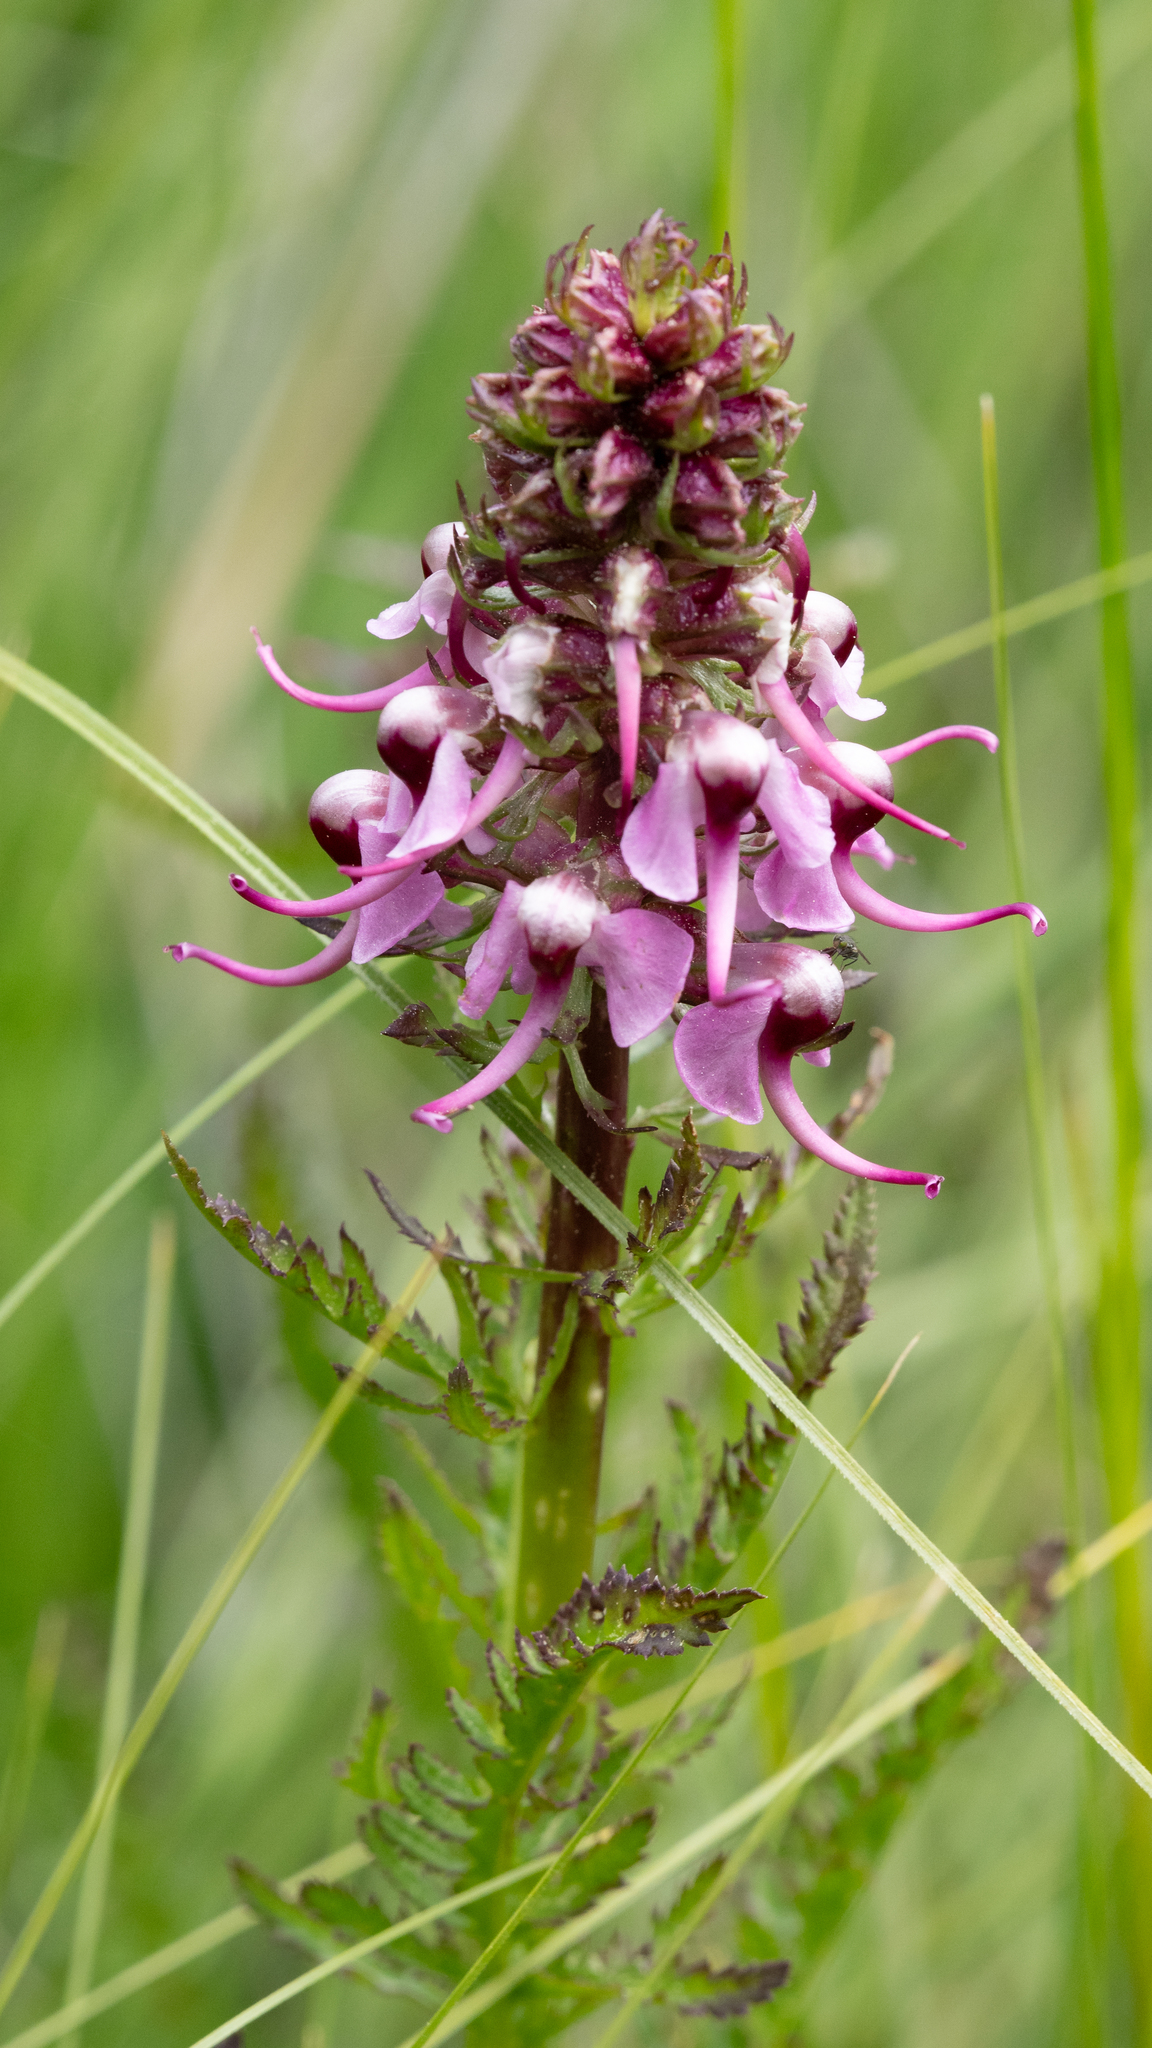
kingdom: Plantae
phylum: Tracheophyta
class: Magnoliopsida
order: Lamiales
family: Orobanchaceae
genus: Pedicularis
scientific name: Pedicularis groenlandica
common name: Elephant's-head
